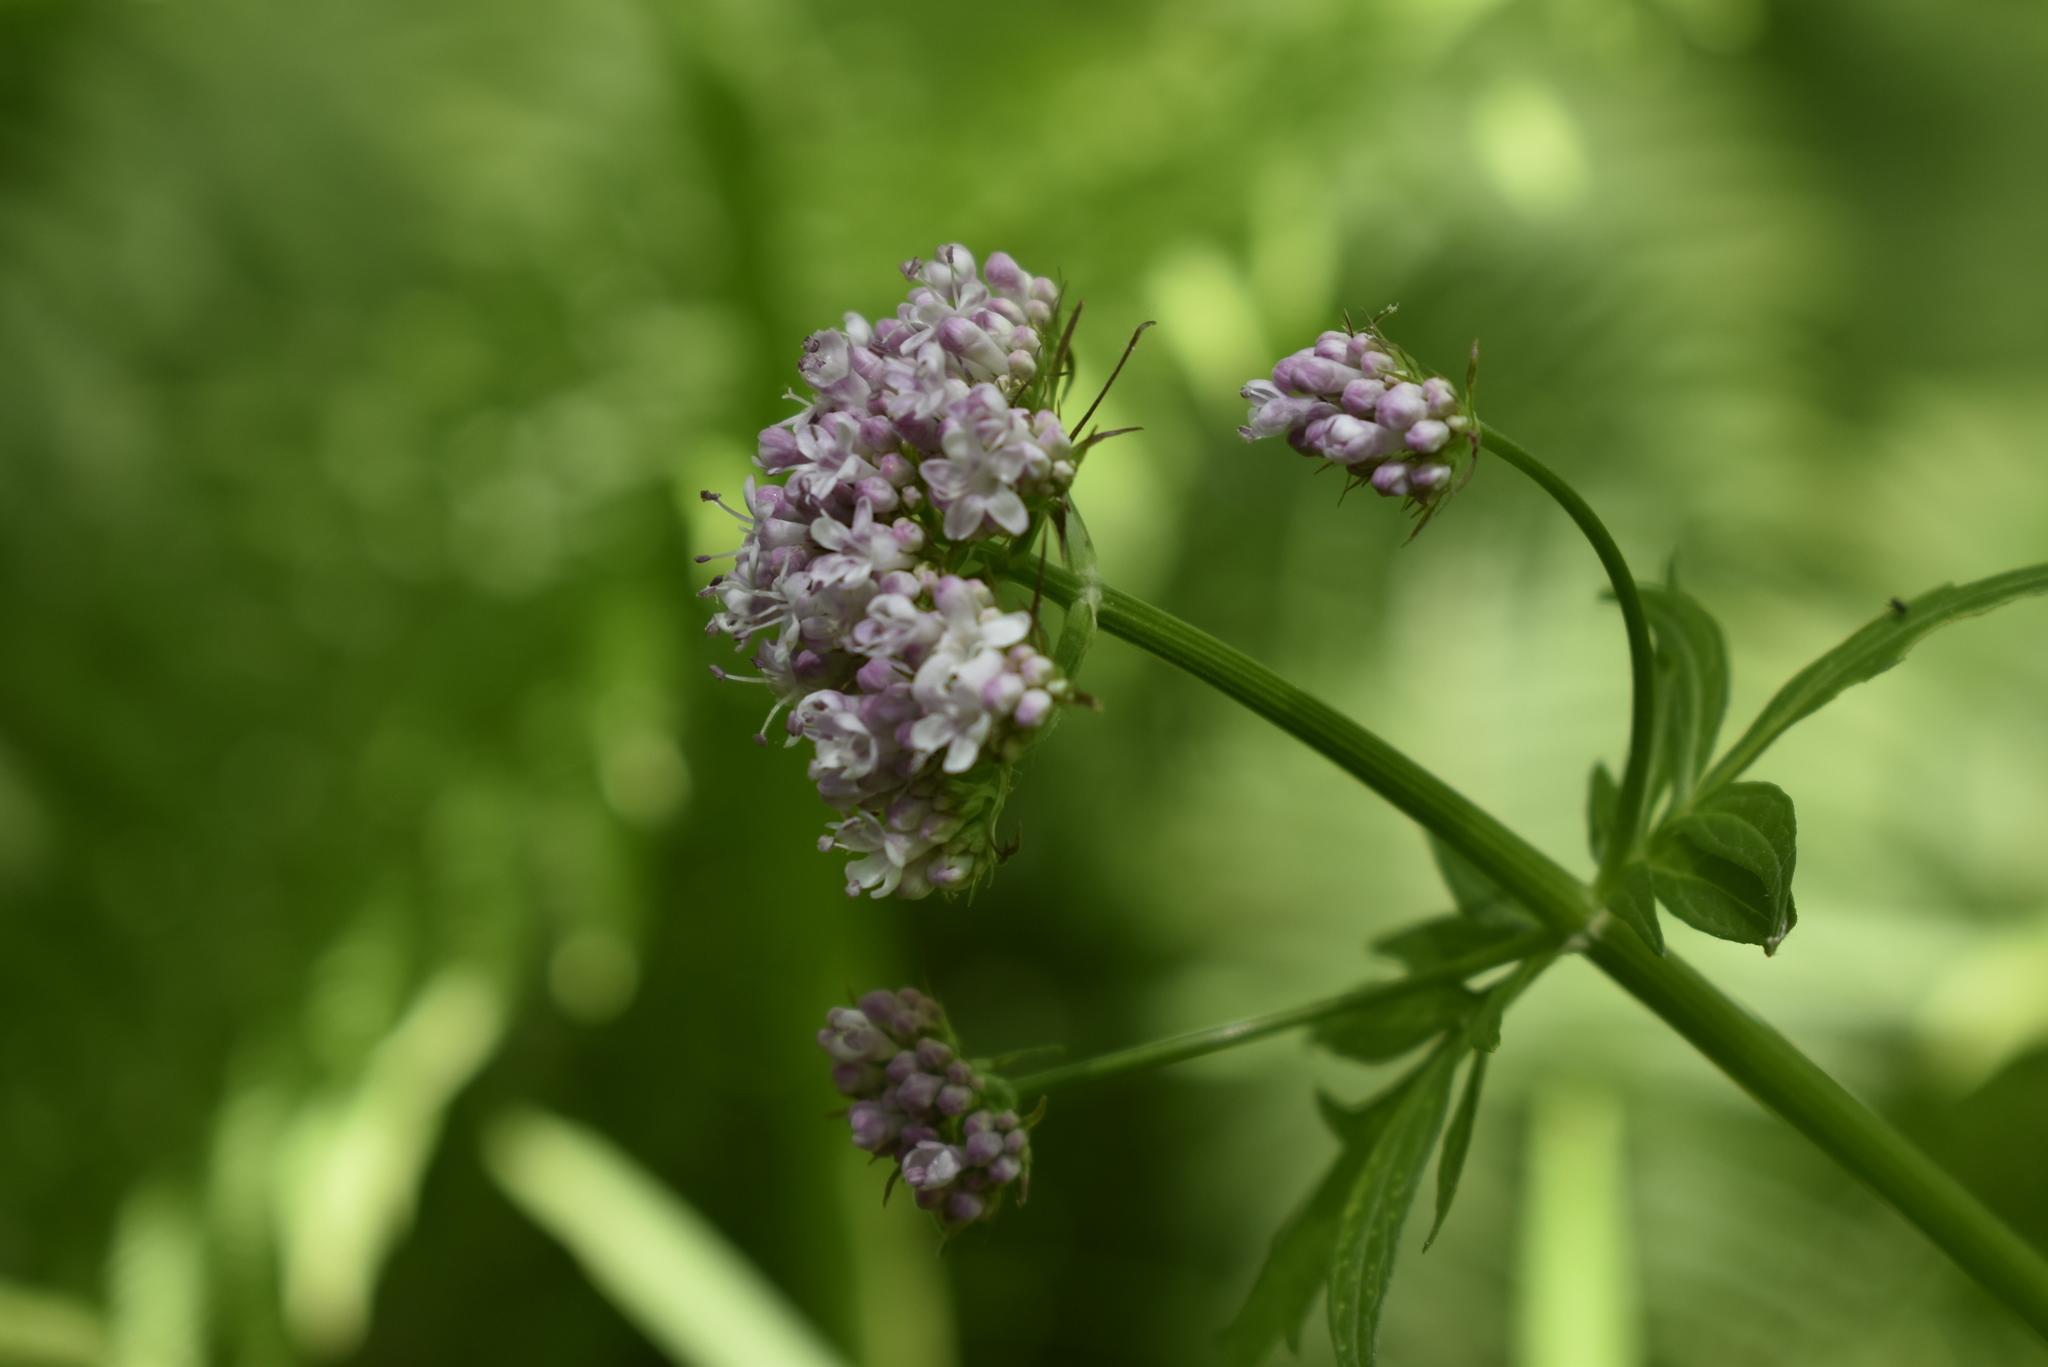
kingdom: Plantae
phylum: Tracheophyta
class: Magnoliopsida
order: Dipsacales
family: Caprifoliaceae
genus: Valeriana
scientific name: Valeriana fauriei
